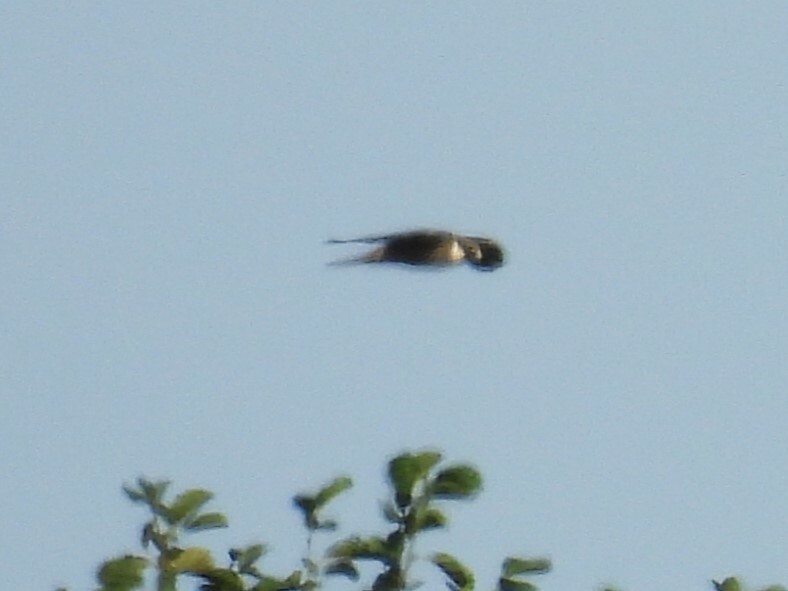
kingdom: Animalia
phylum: Chordata
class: Aves
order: Falconiformes
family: Falconidae
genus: Falco
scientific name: Falco subbuteo
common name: Eurasian hobby
